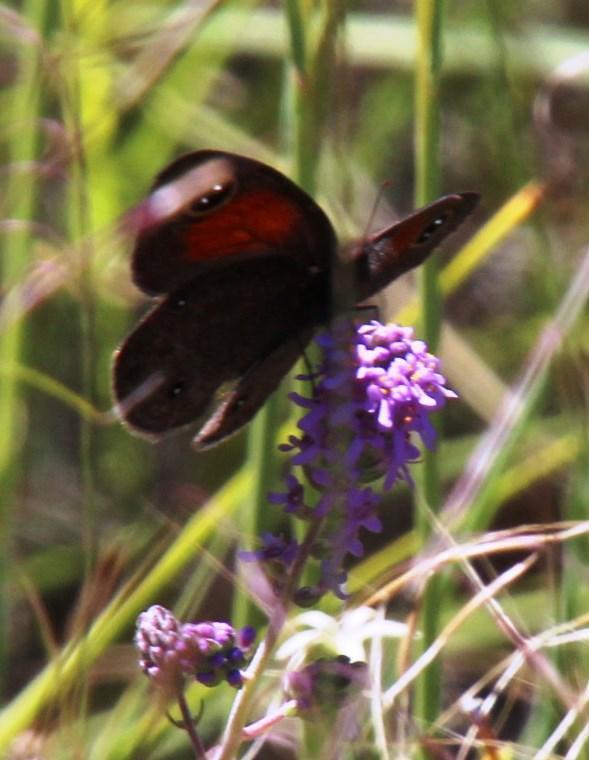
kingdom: Animalia
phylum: Arthropoda
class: Insecta
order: Lepidoptera
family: Nymphalidae
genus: Stygionympha
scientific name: Stygionympha vigilans
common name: Western hillside brown
